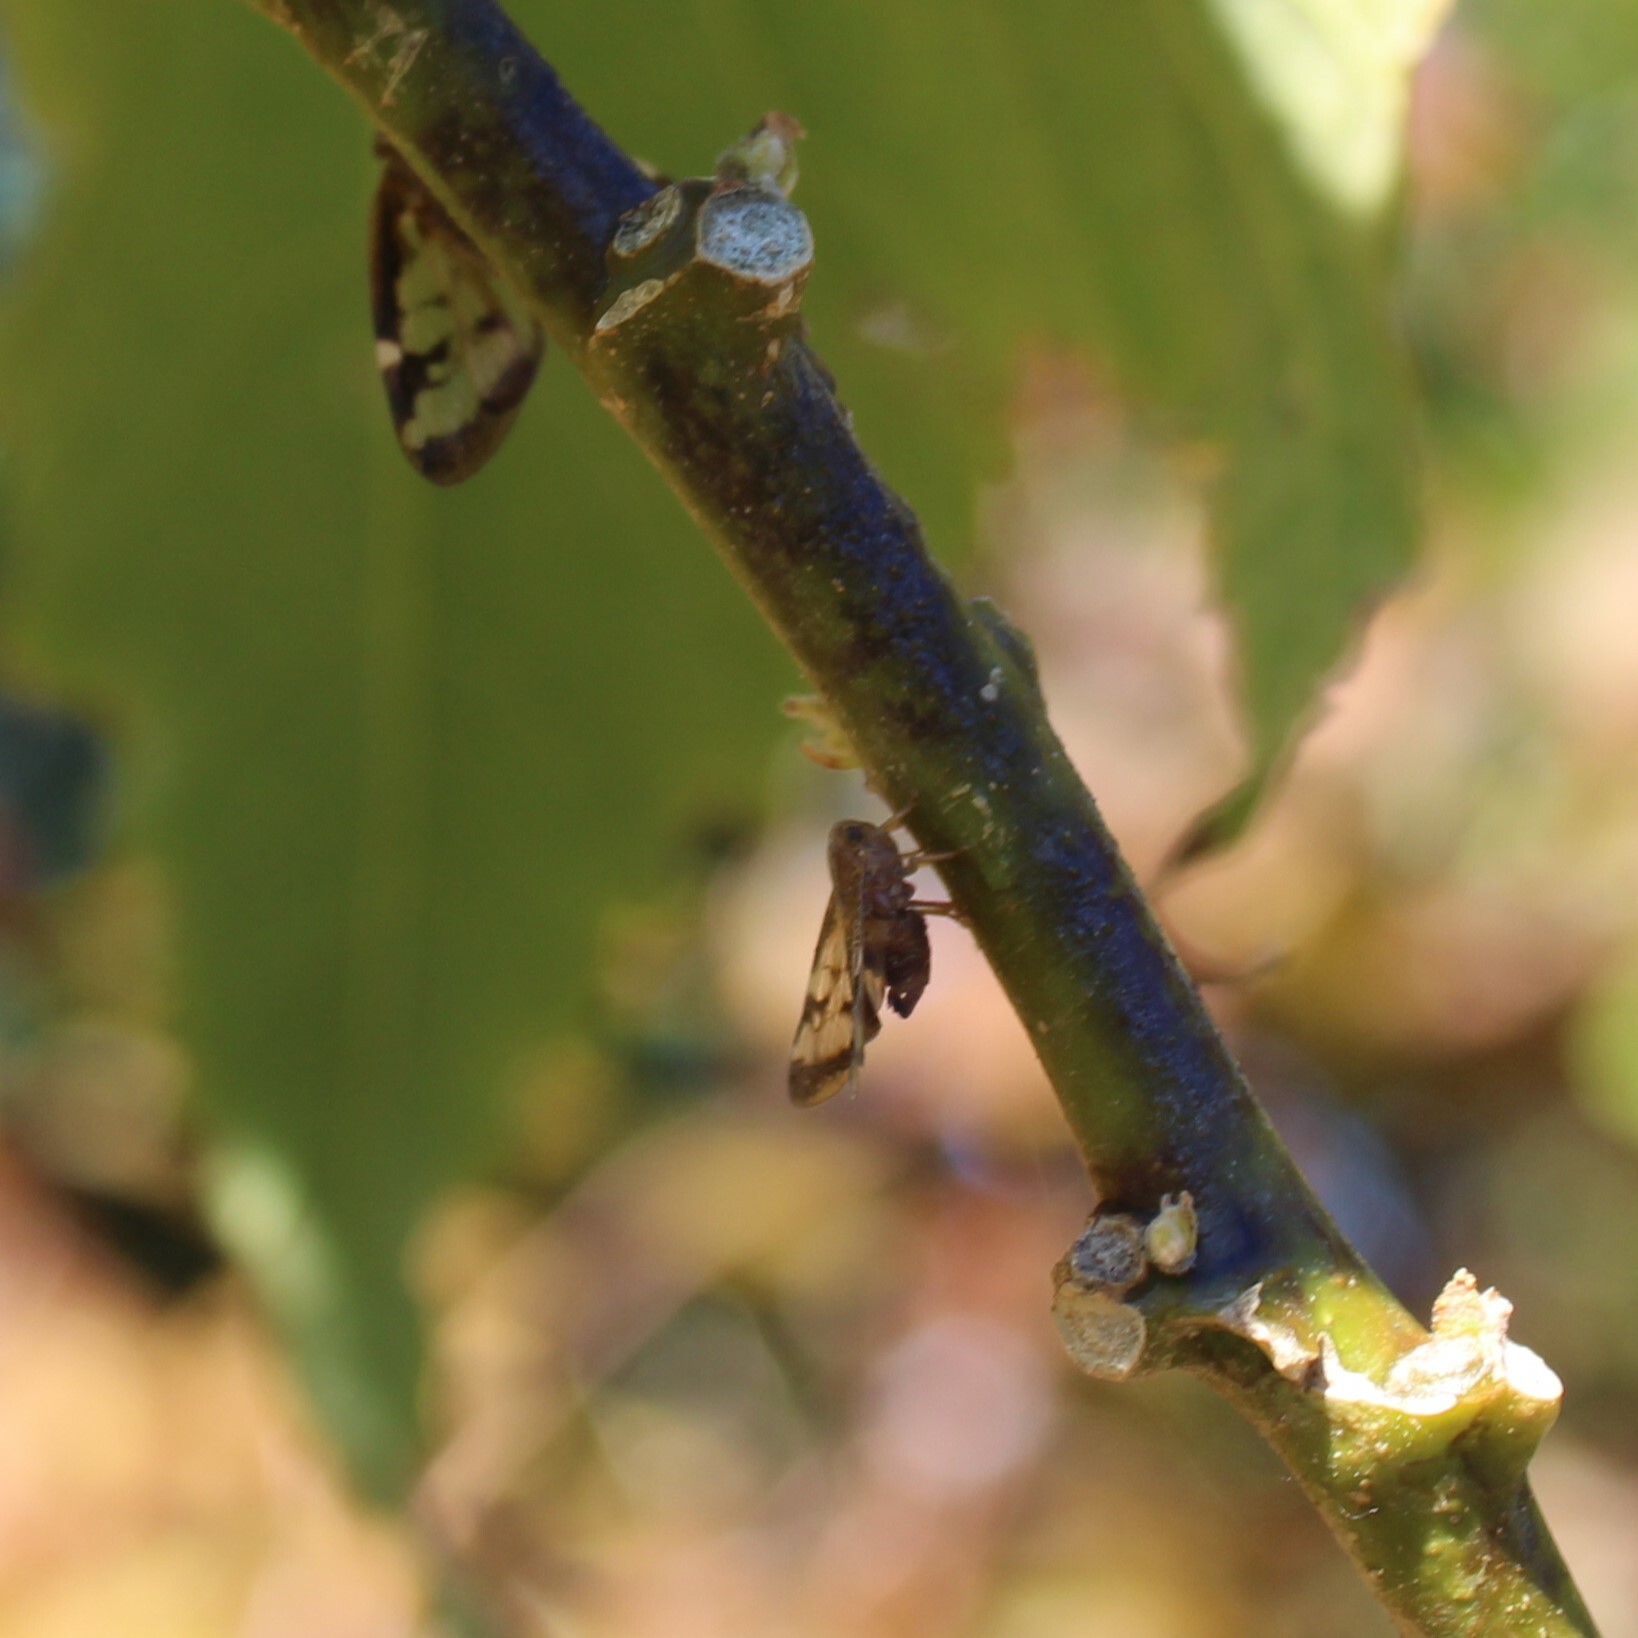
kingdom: Animalia
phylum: Arthropoda
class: Insecta
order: Hemiptera
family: Ricaniidae
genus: Scolypopa
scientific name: Scolypopa australis
